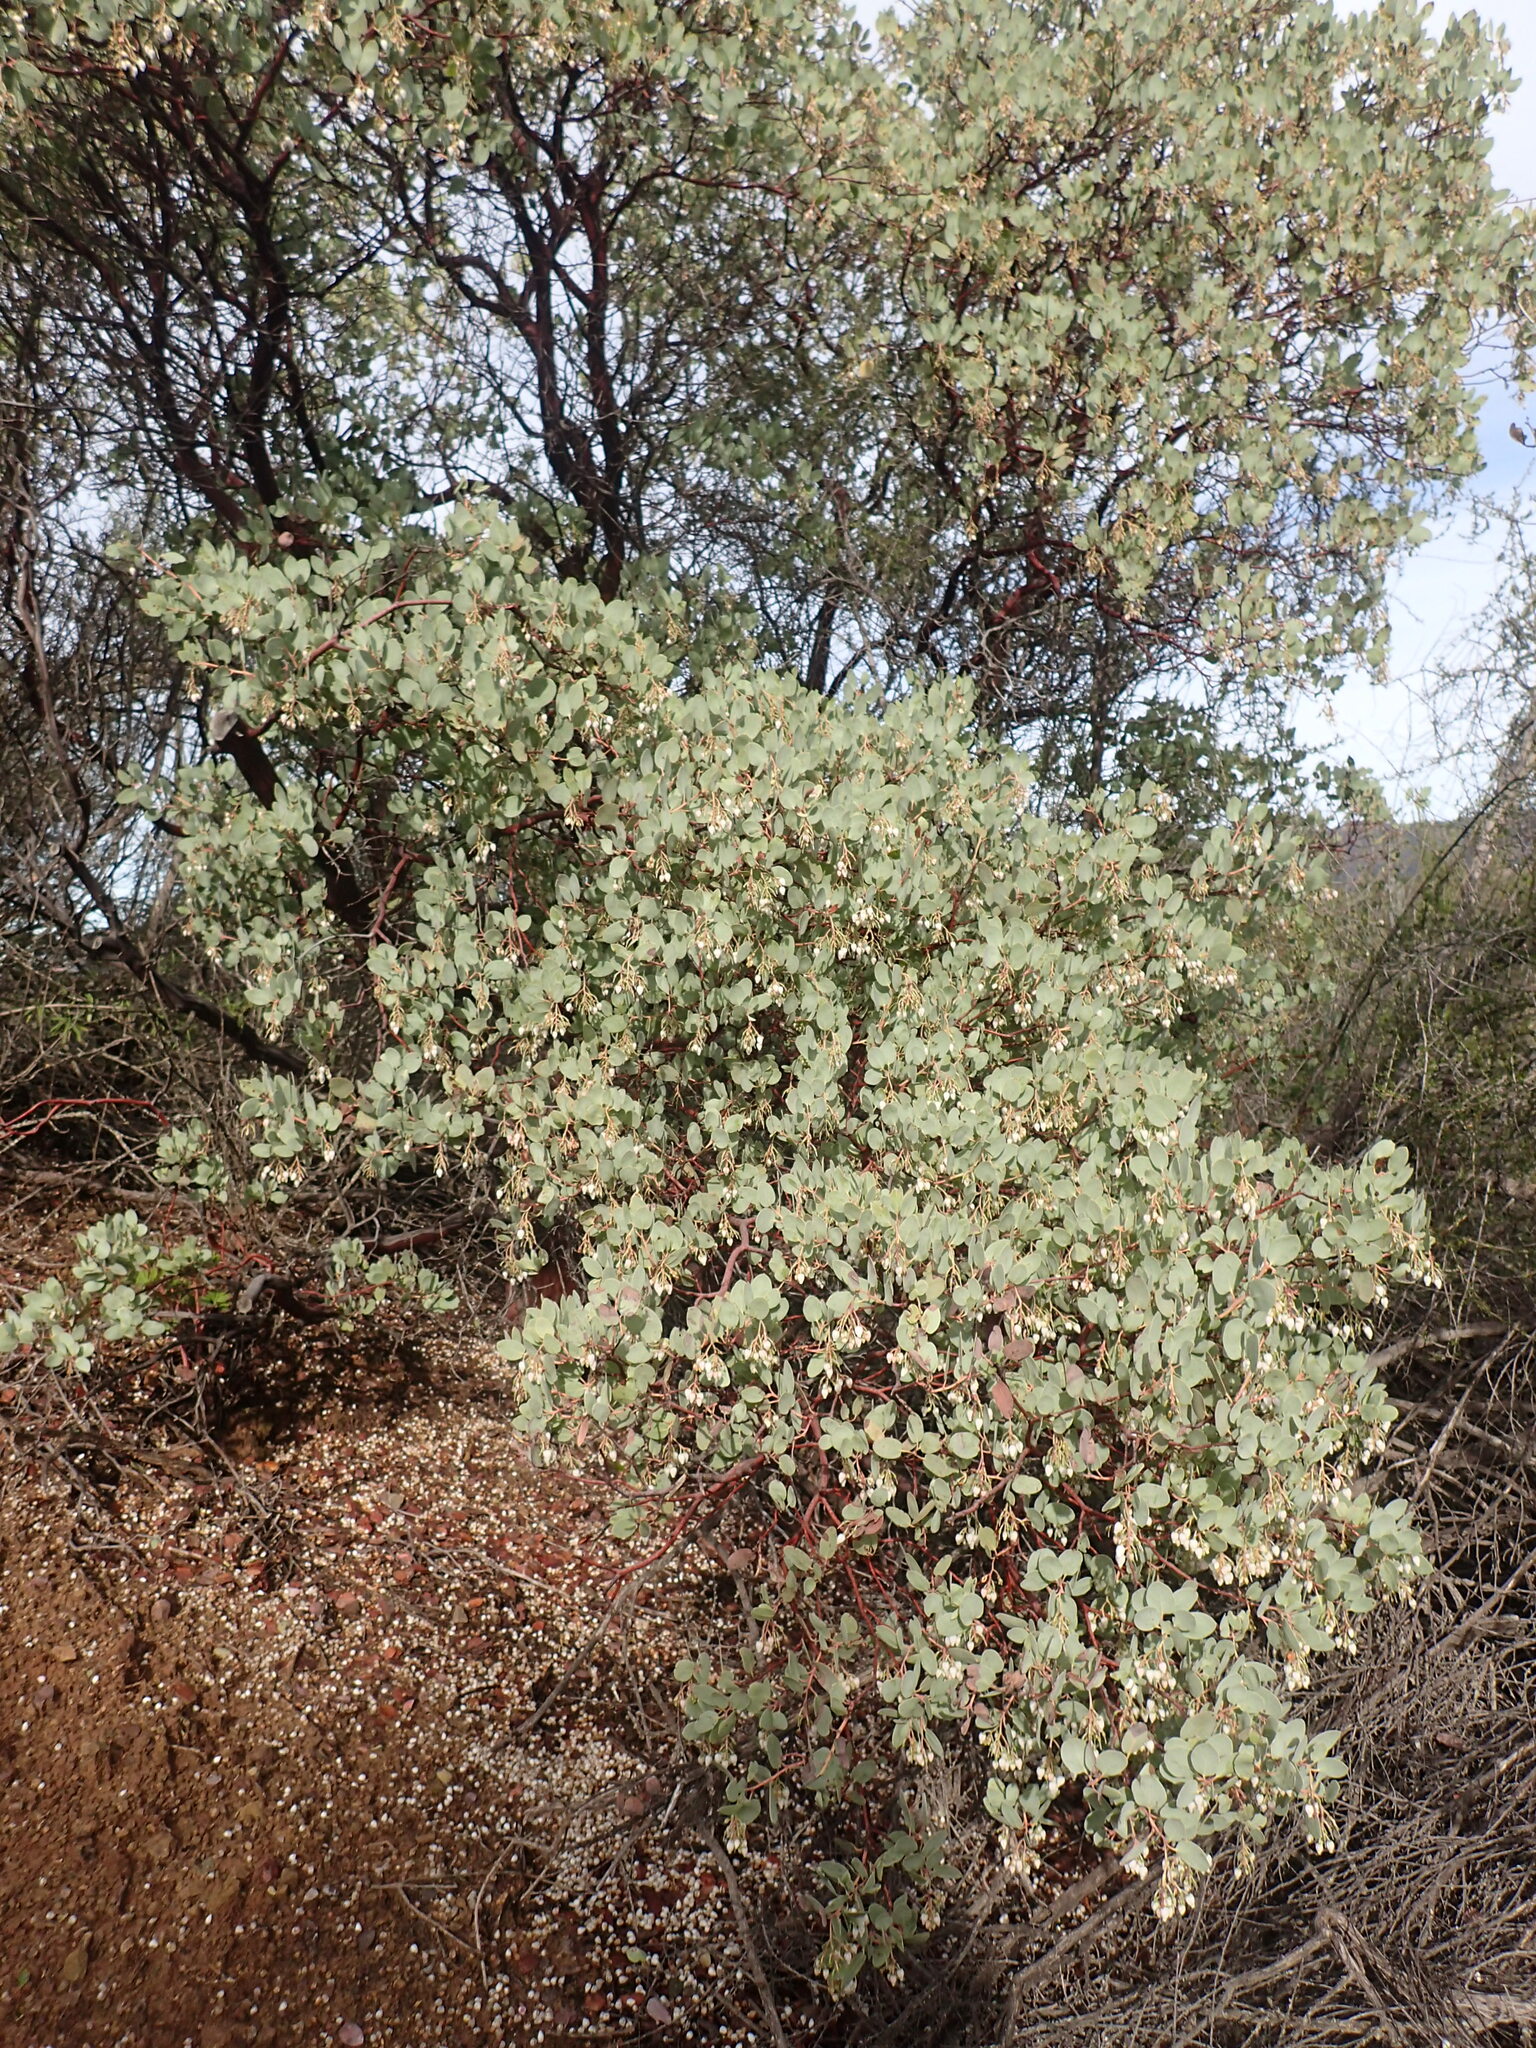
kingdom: Plantae
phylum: Tracheophyta
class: Magnoliopsida
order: Ericales
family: Ericaceae
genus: Arctostaphylos
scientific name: Arctostaphylos glauca
